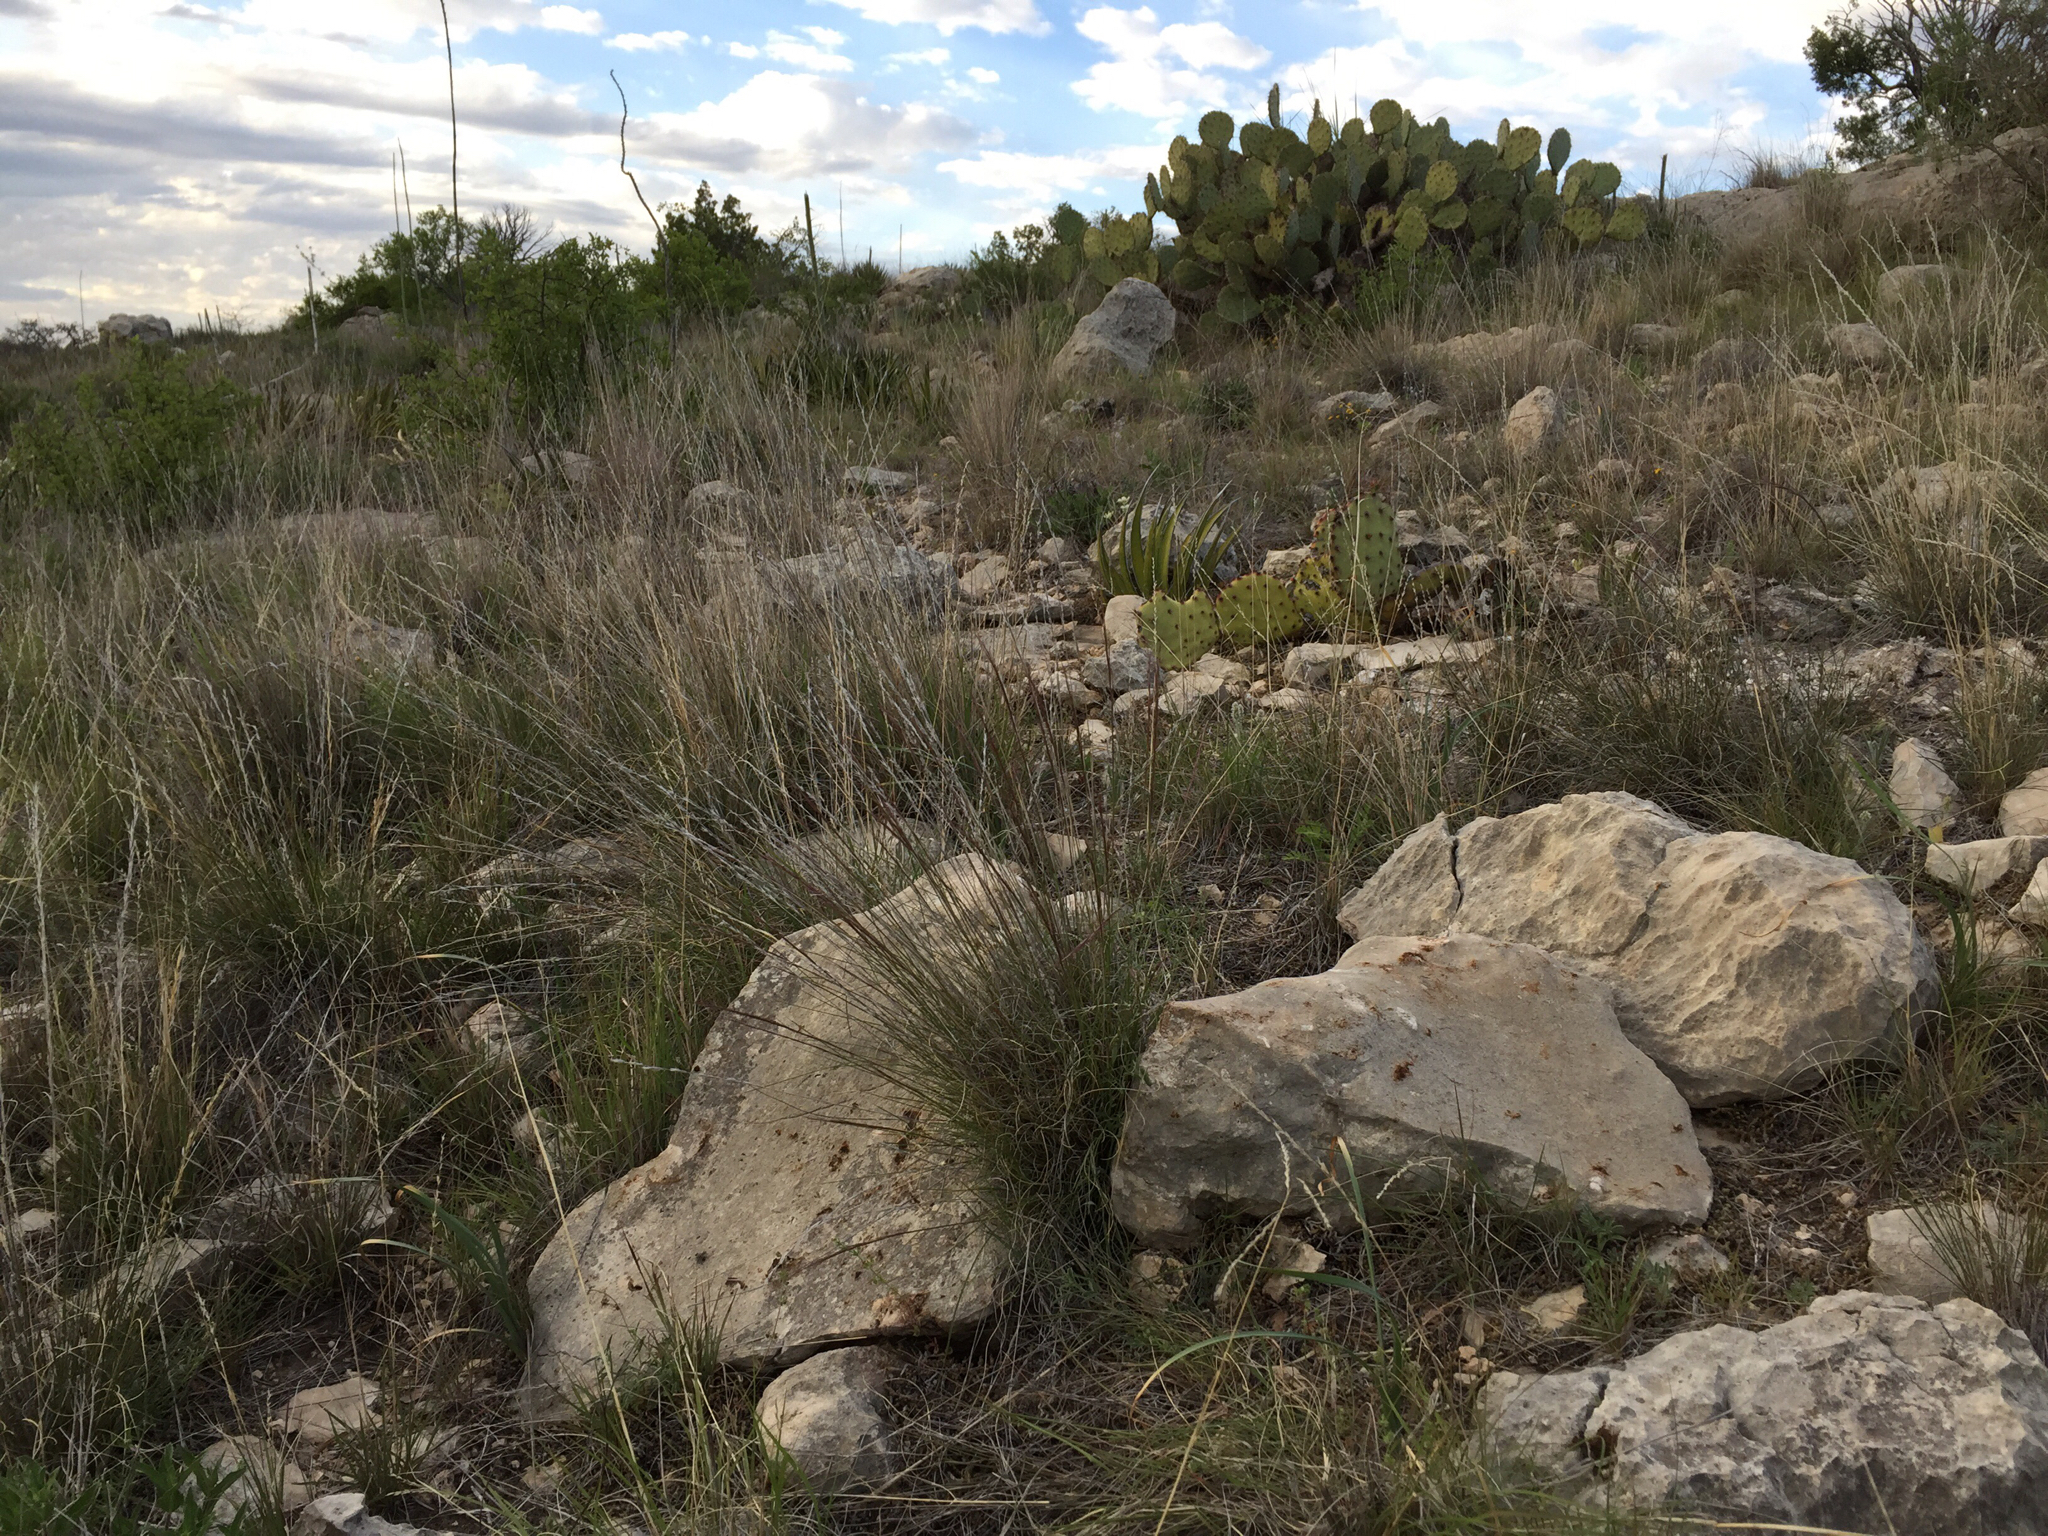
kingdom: Animalia
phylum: Mollusca
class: Gastropoda
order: Stylommatophora
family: Bulimulidae
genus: Rabdotus
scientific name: Rabdotus dealbatus
